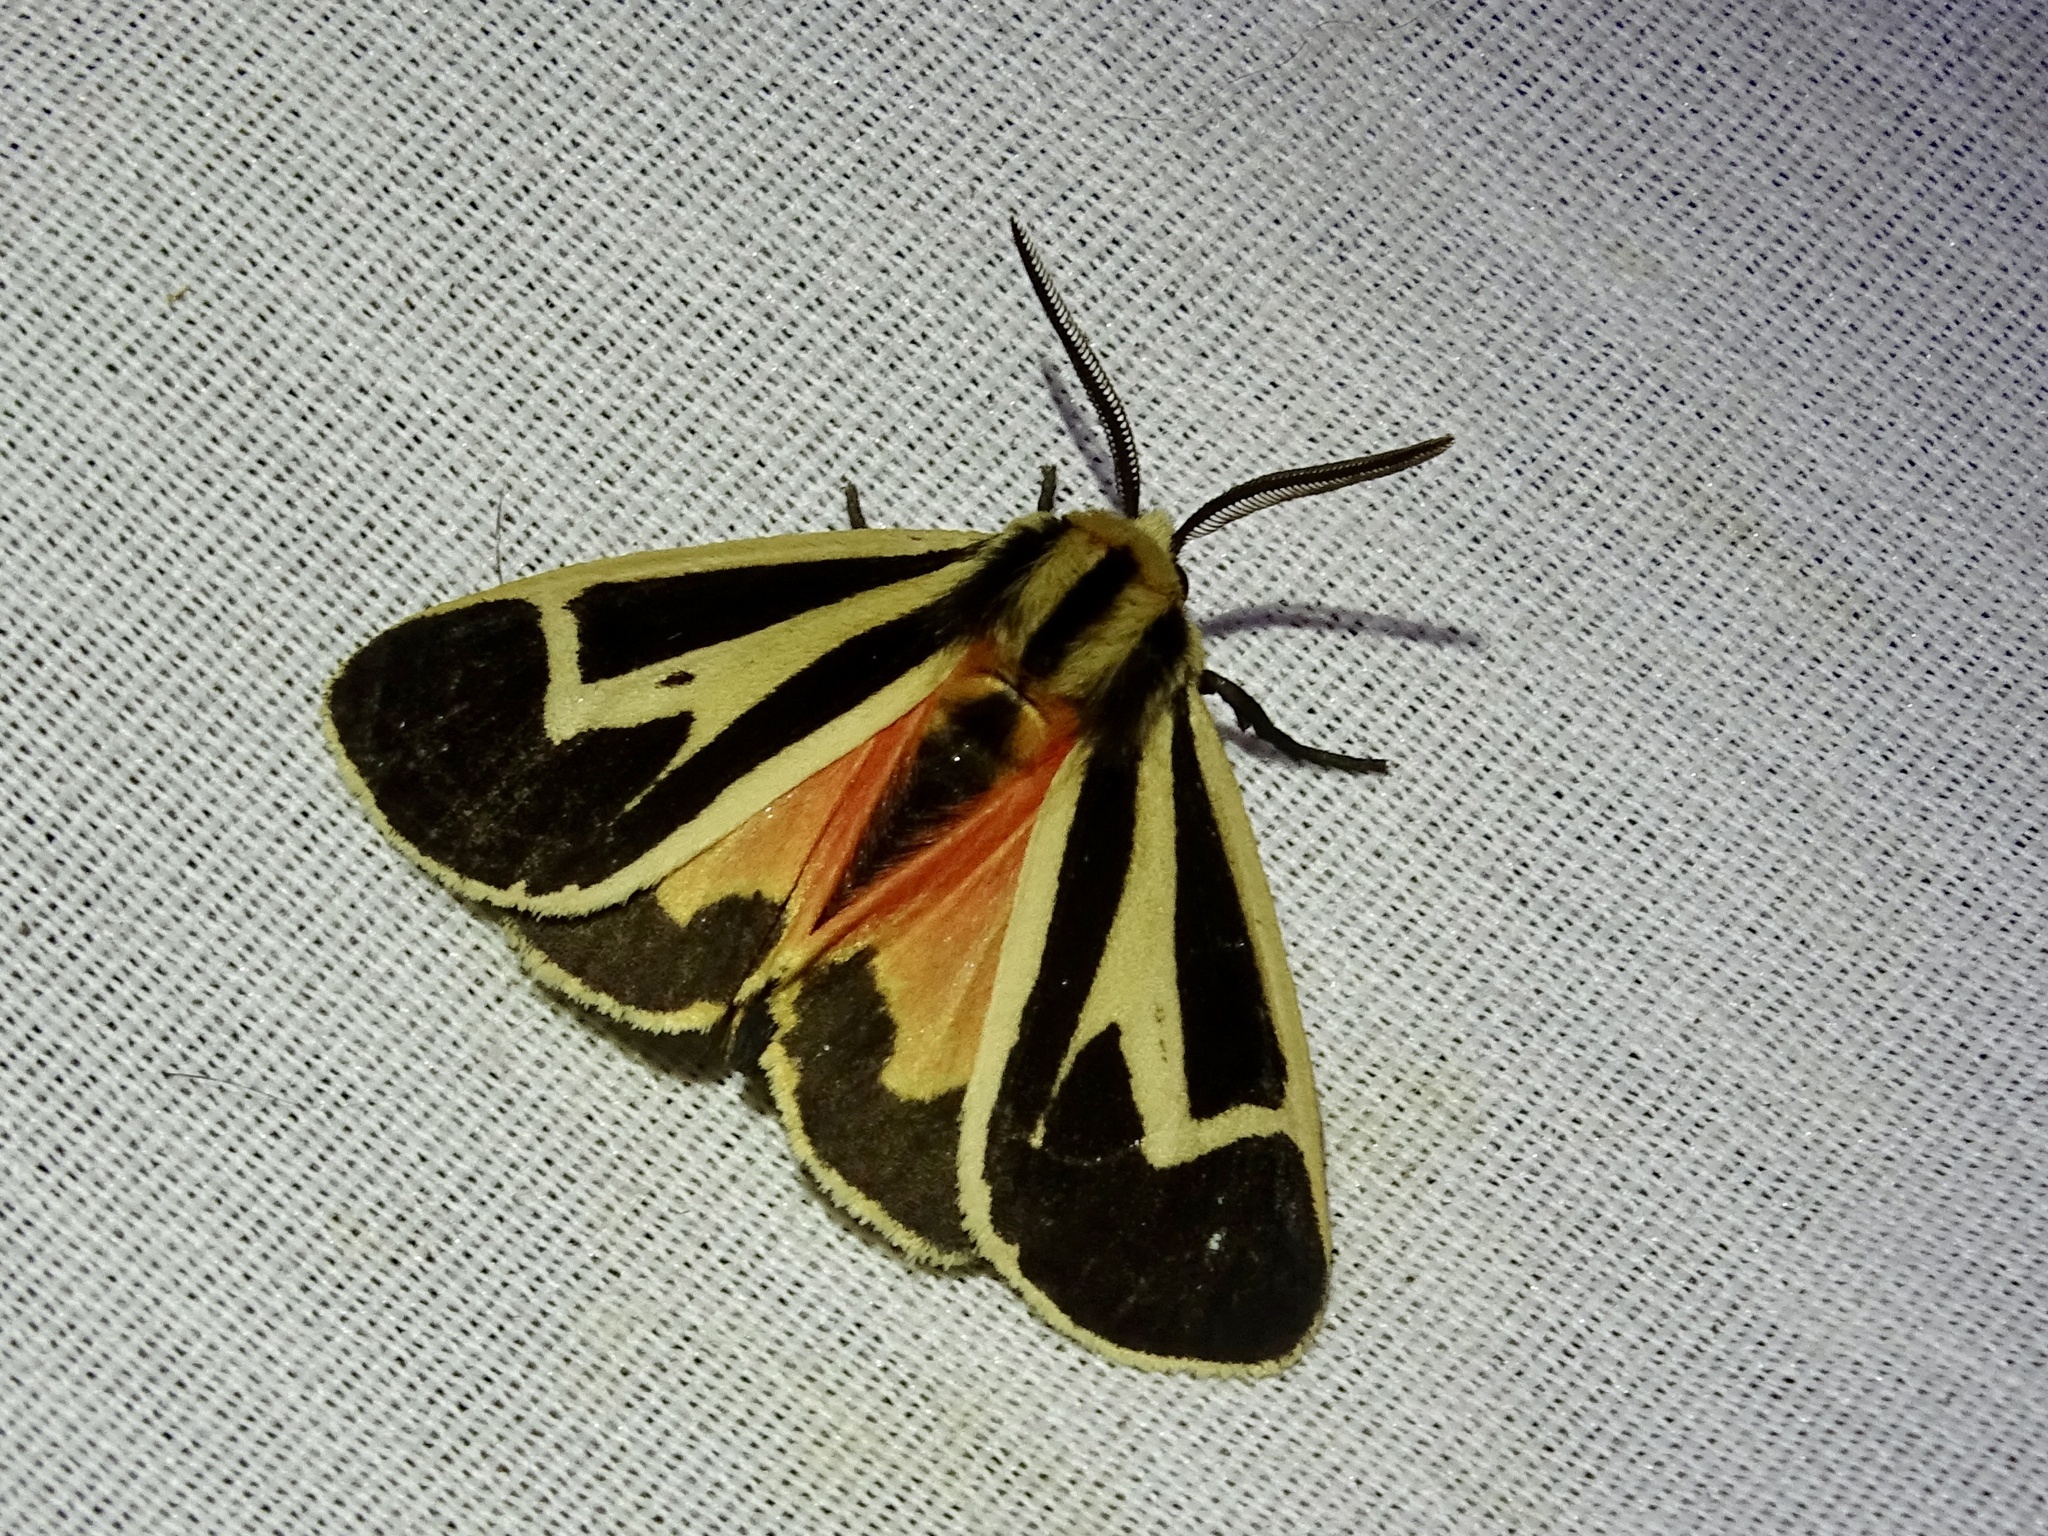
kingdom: Animalia
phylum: Arthropoda
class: Insecta
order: Lepidoptera
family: Erebidae
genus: Apantesis
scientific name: Apantesis vittata
